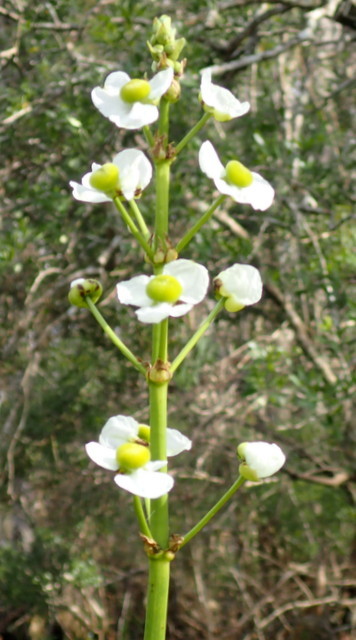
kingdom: Plantae
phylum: Tracheophyta
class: Liliopsida
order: Alismatales
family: Alismataceae
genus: Sagittaria
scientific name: Sagittaria lancifolia
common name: Lance-leaf arrowhead
